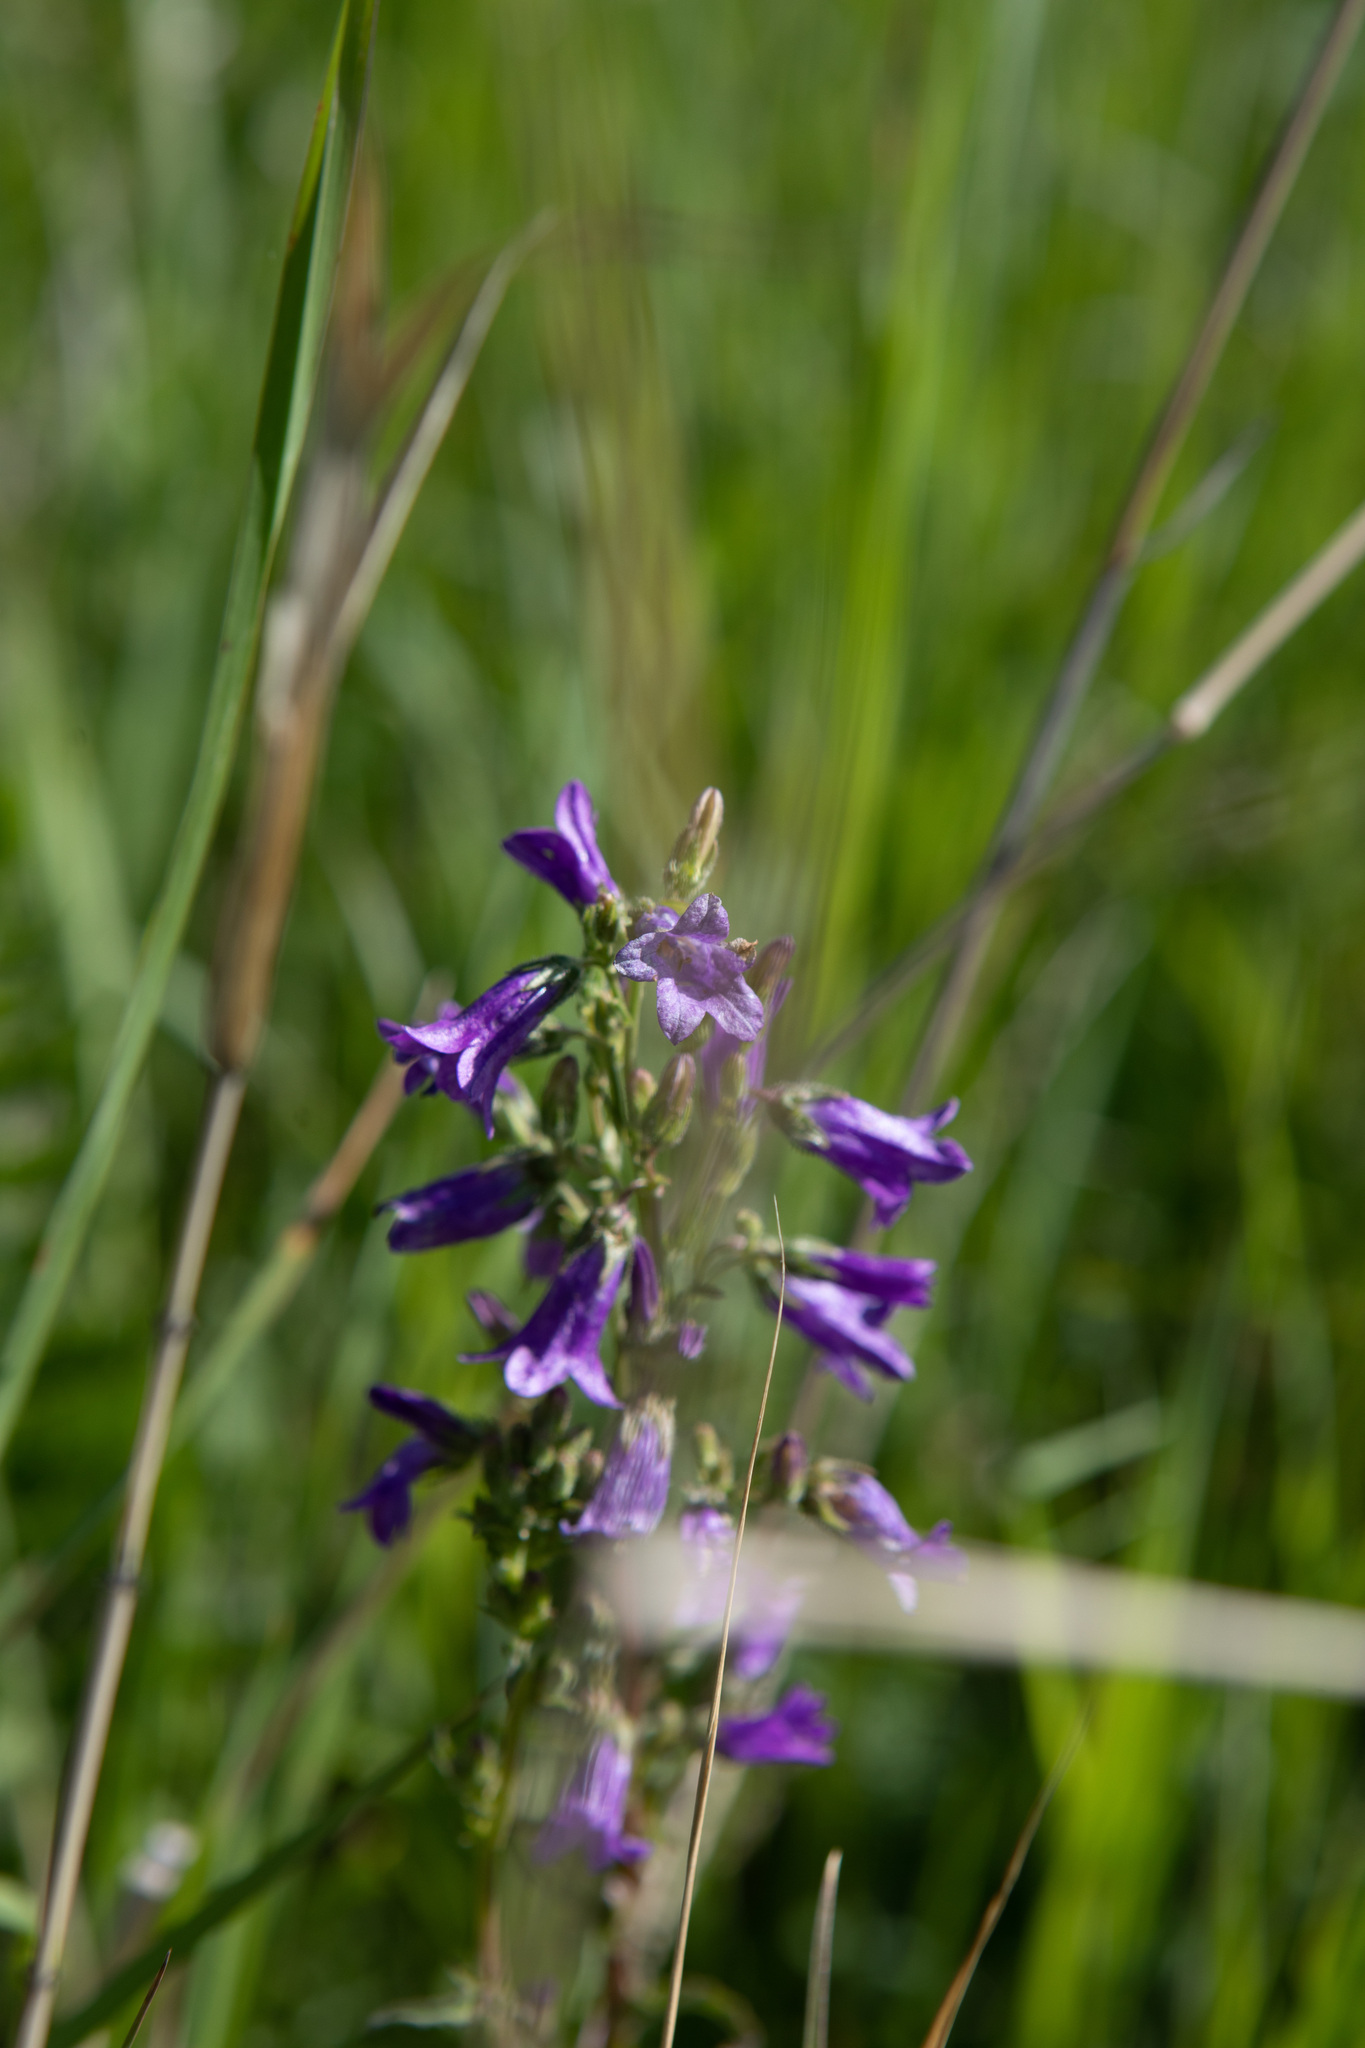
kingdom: Plantae
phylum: Tracheophyta
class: Magnoliopsida
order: Asterales
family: Campanulaceae
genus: Campanula
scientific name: Campanula sibirica
